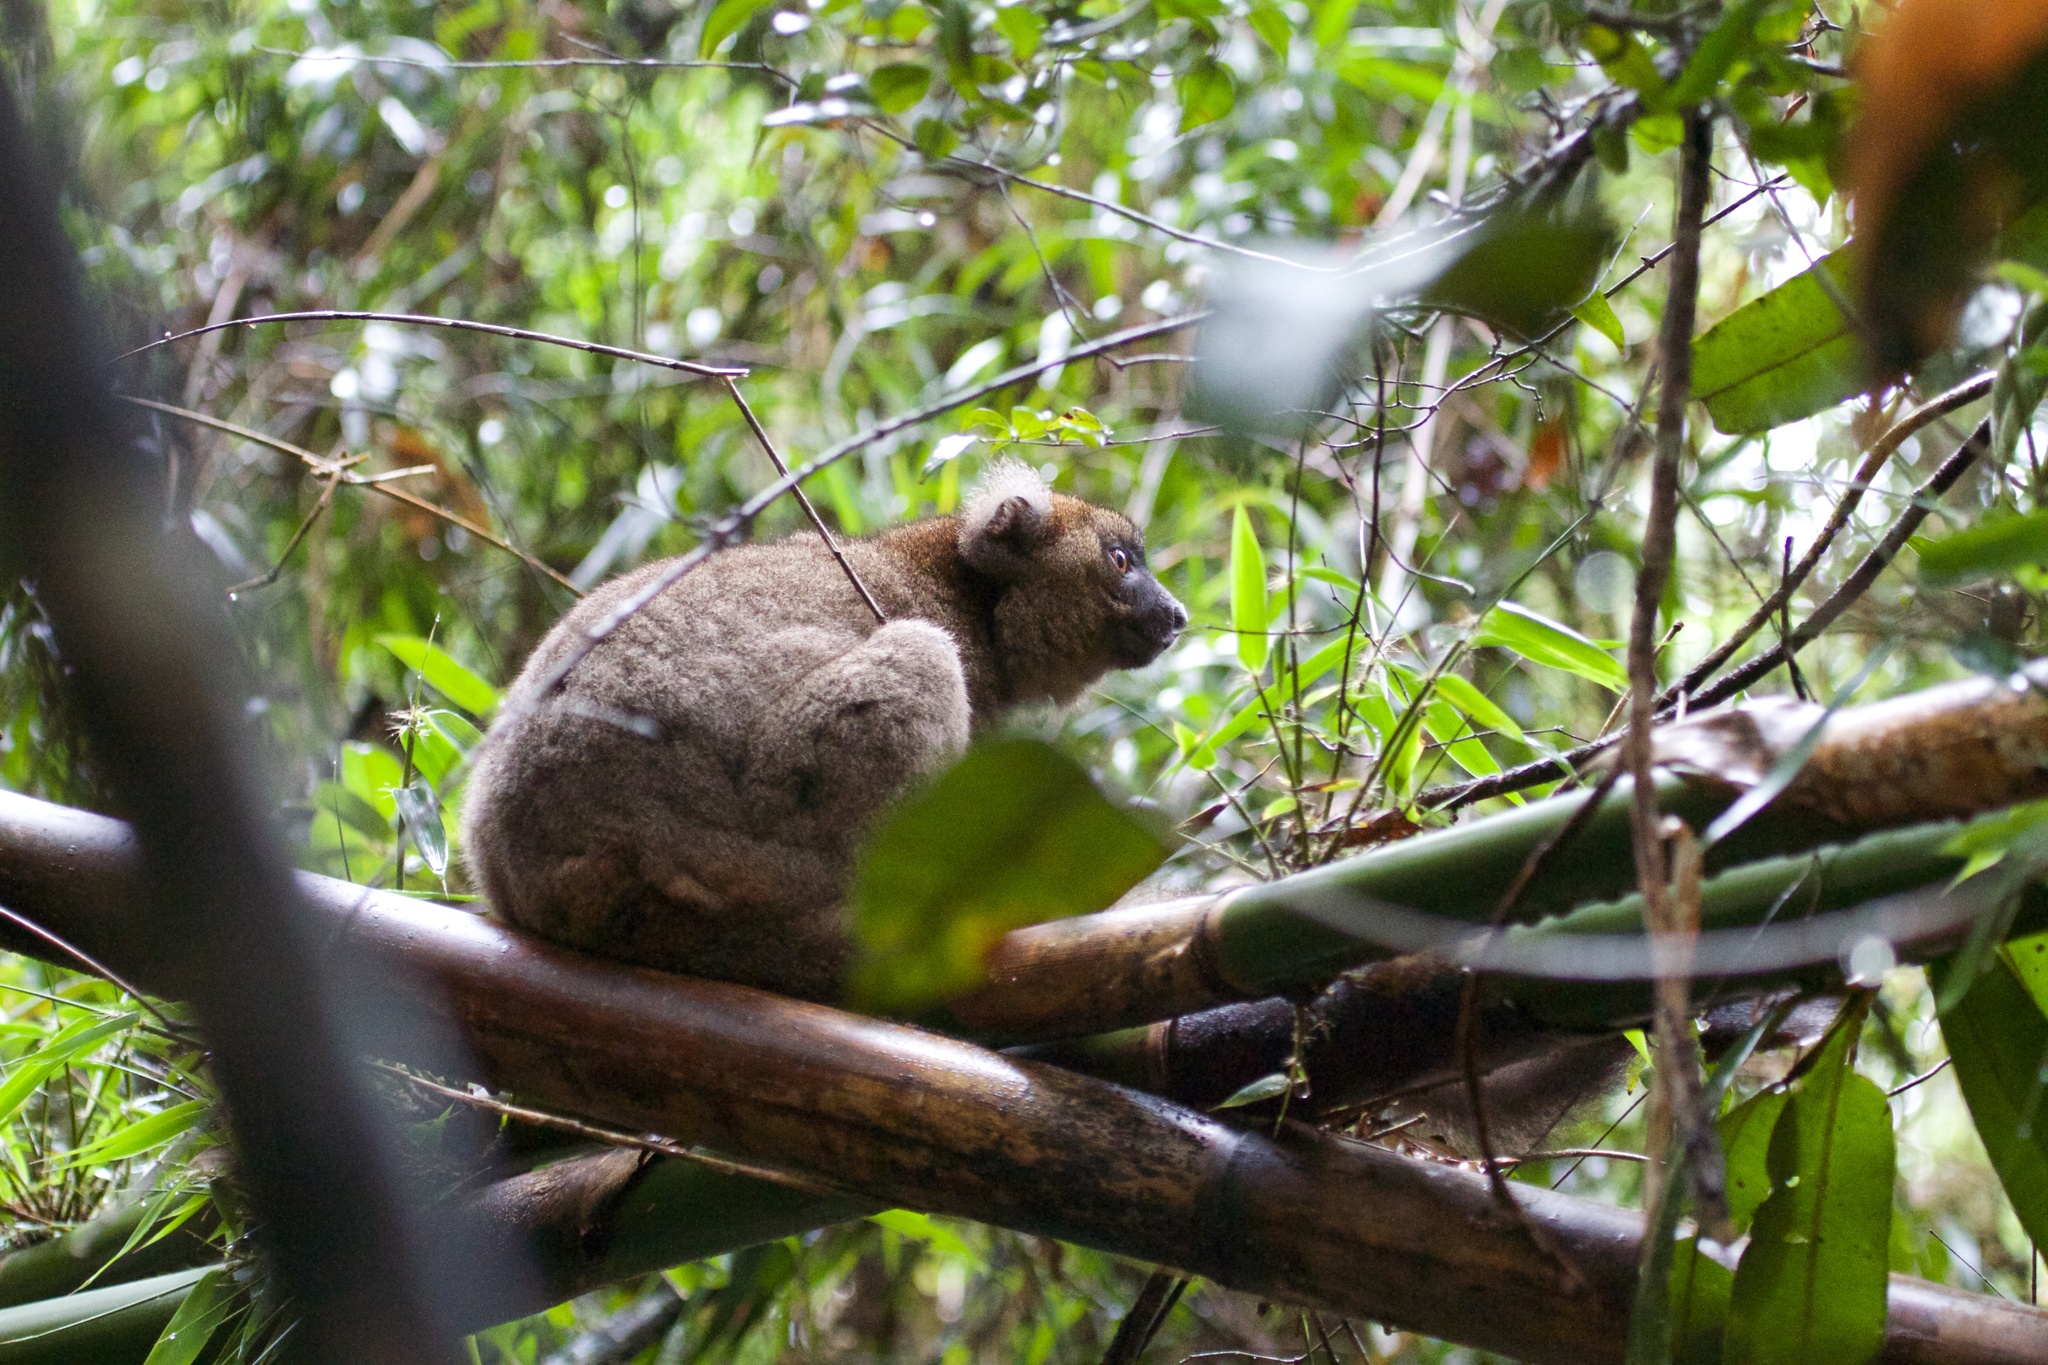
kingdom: Animalia
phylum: Chordata
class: Mammalia
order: Primates
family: Lemuridae
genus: Prolemur
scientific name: Prolemur simus
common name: Greater bamboo lemur
